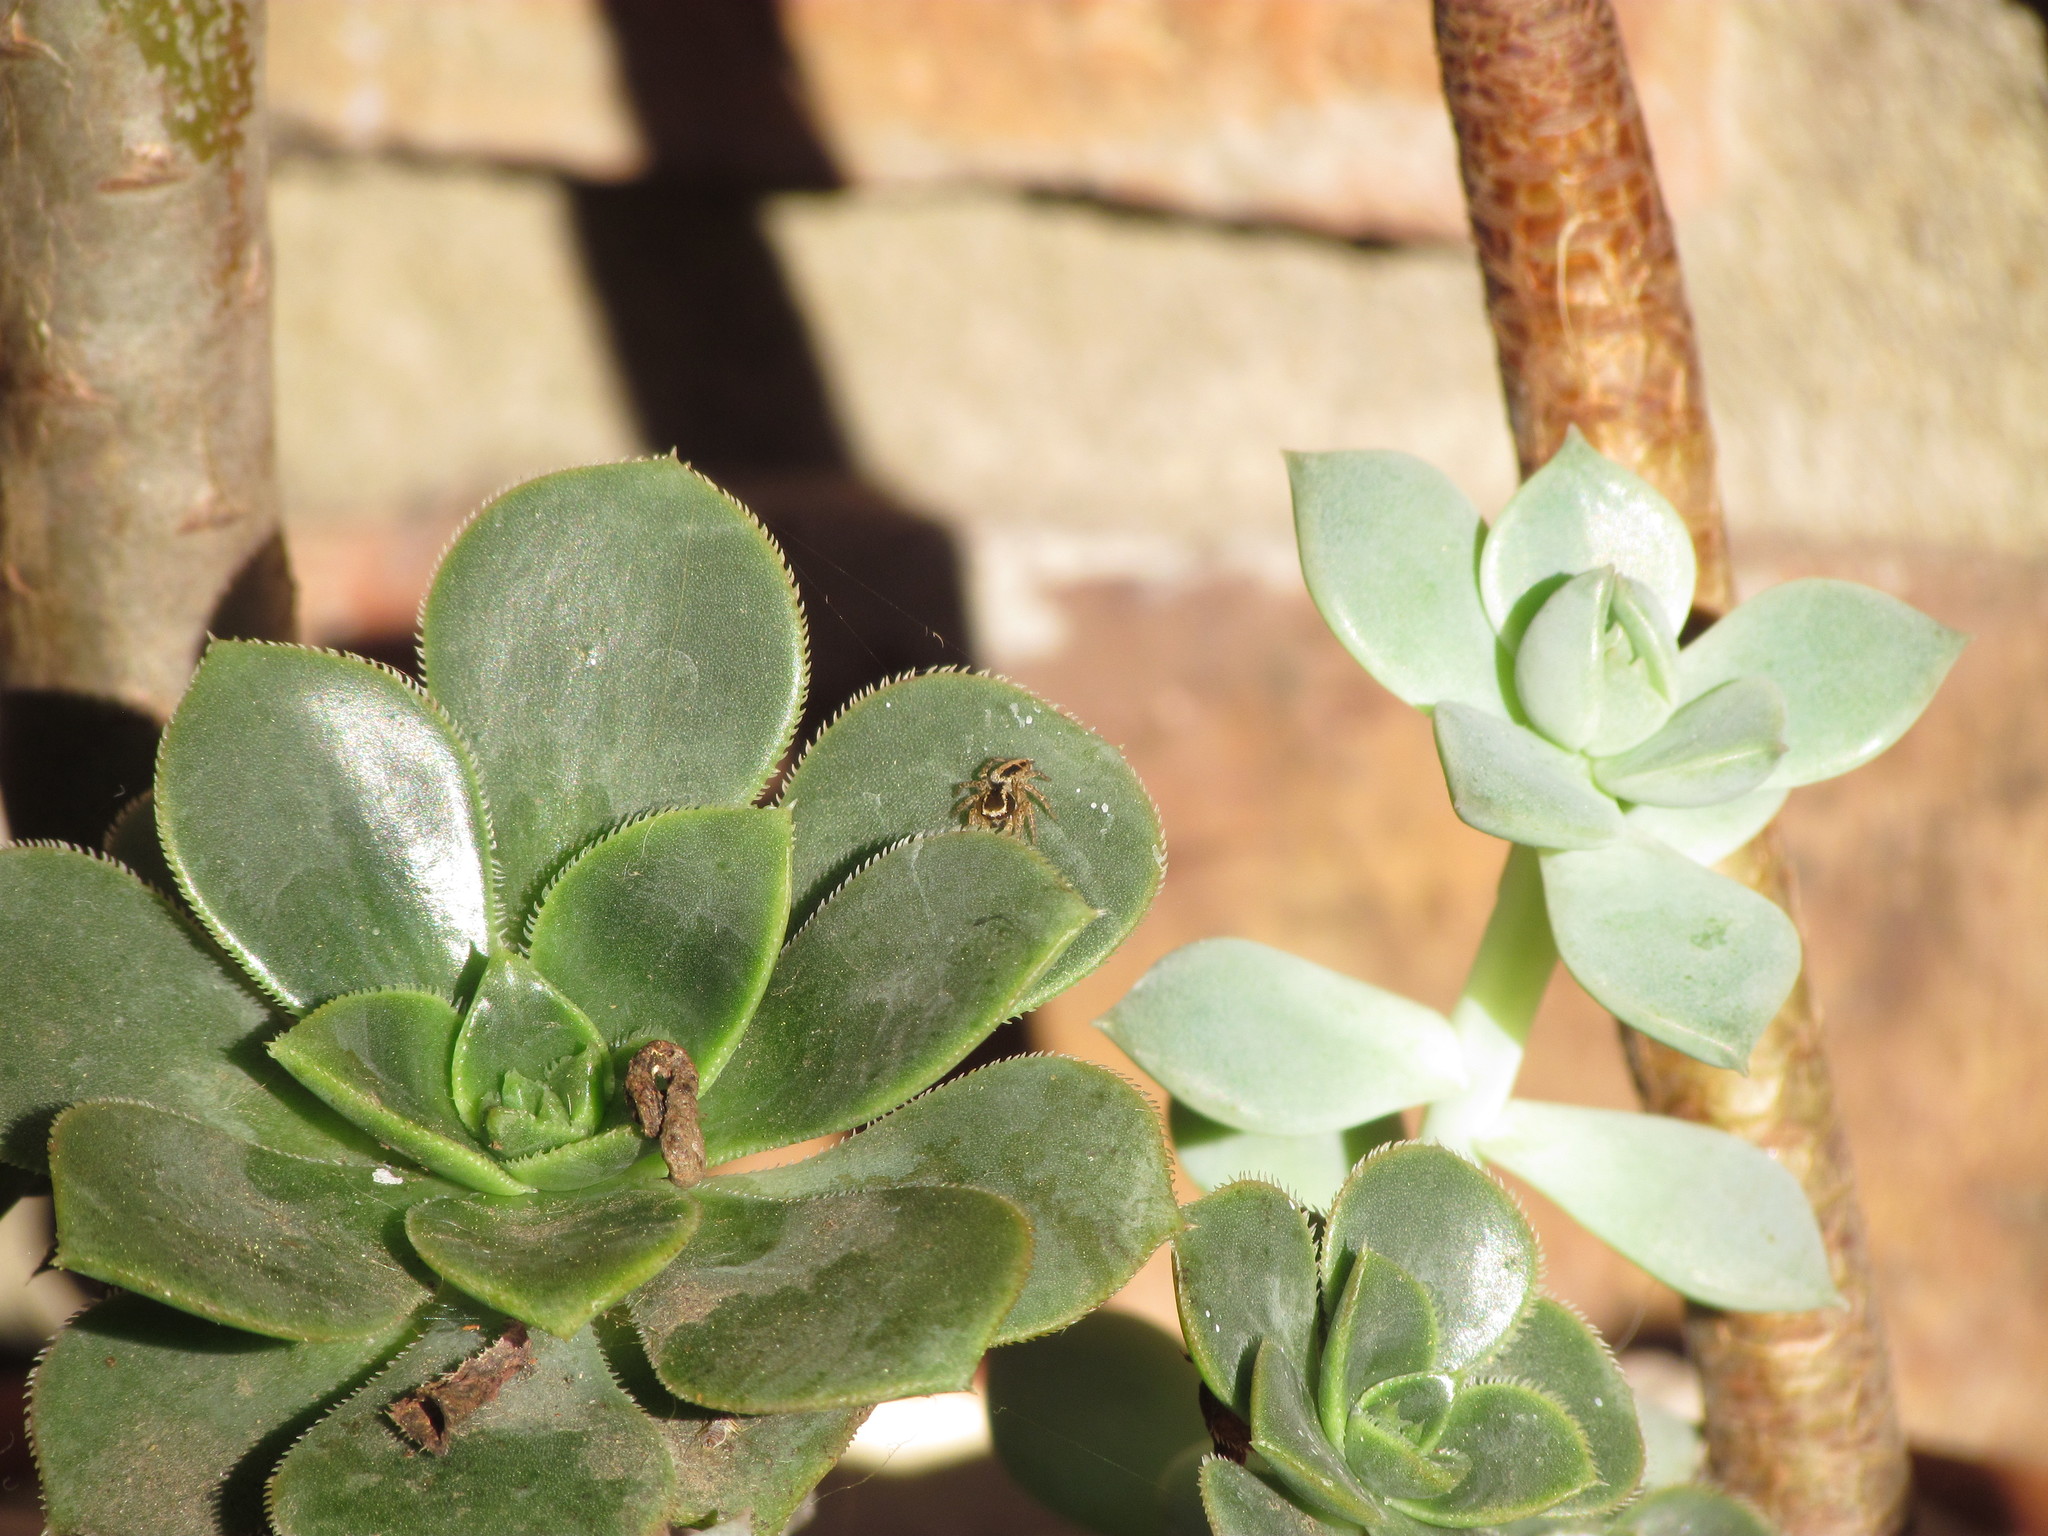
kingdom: Animalia
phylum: Arthropoda
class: Arachnida
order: Araneae
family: Salticidae
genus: Aphirape
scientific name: Aphirape
